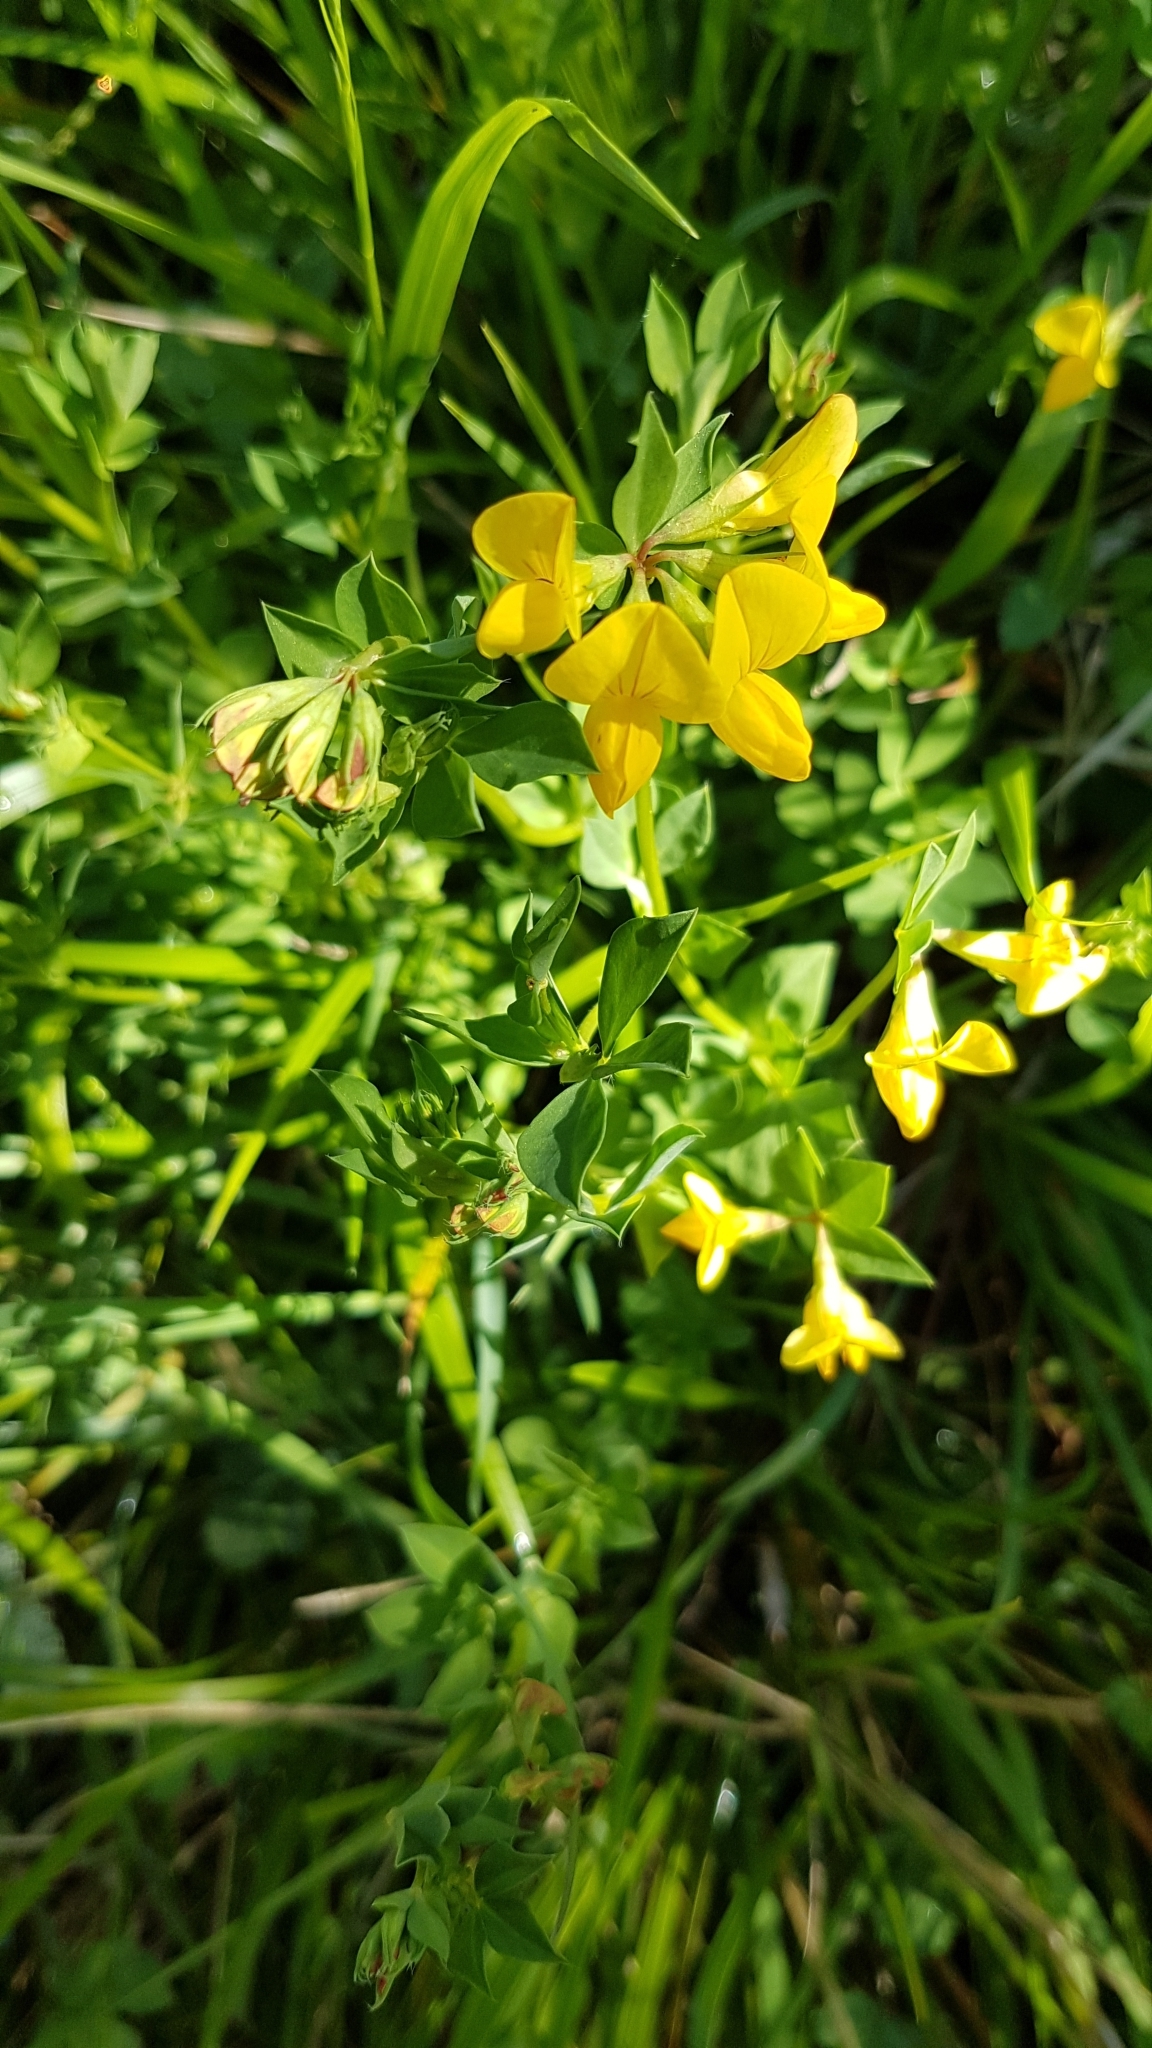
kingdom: Plantae
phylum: Tracheophyta
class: Magnoliopsida
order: Fabales
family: Fabaceae
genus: Lotus
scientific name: Lotus corniculatus
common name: Common bird's-foot-trefoil
